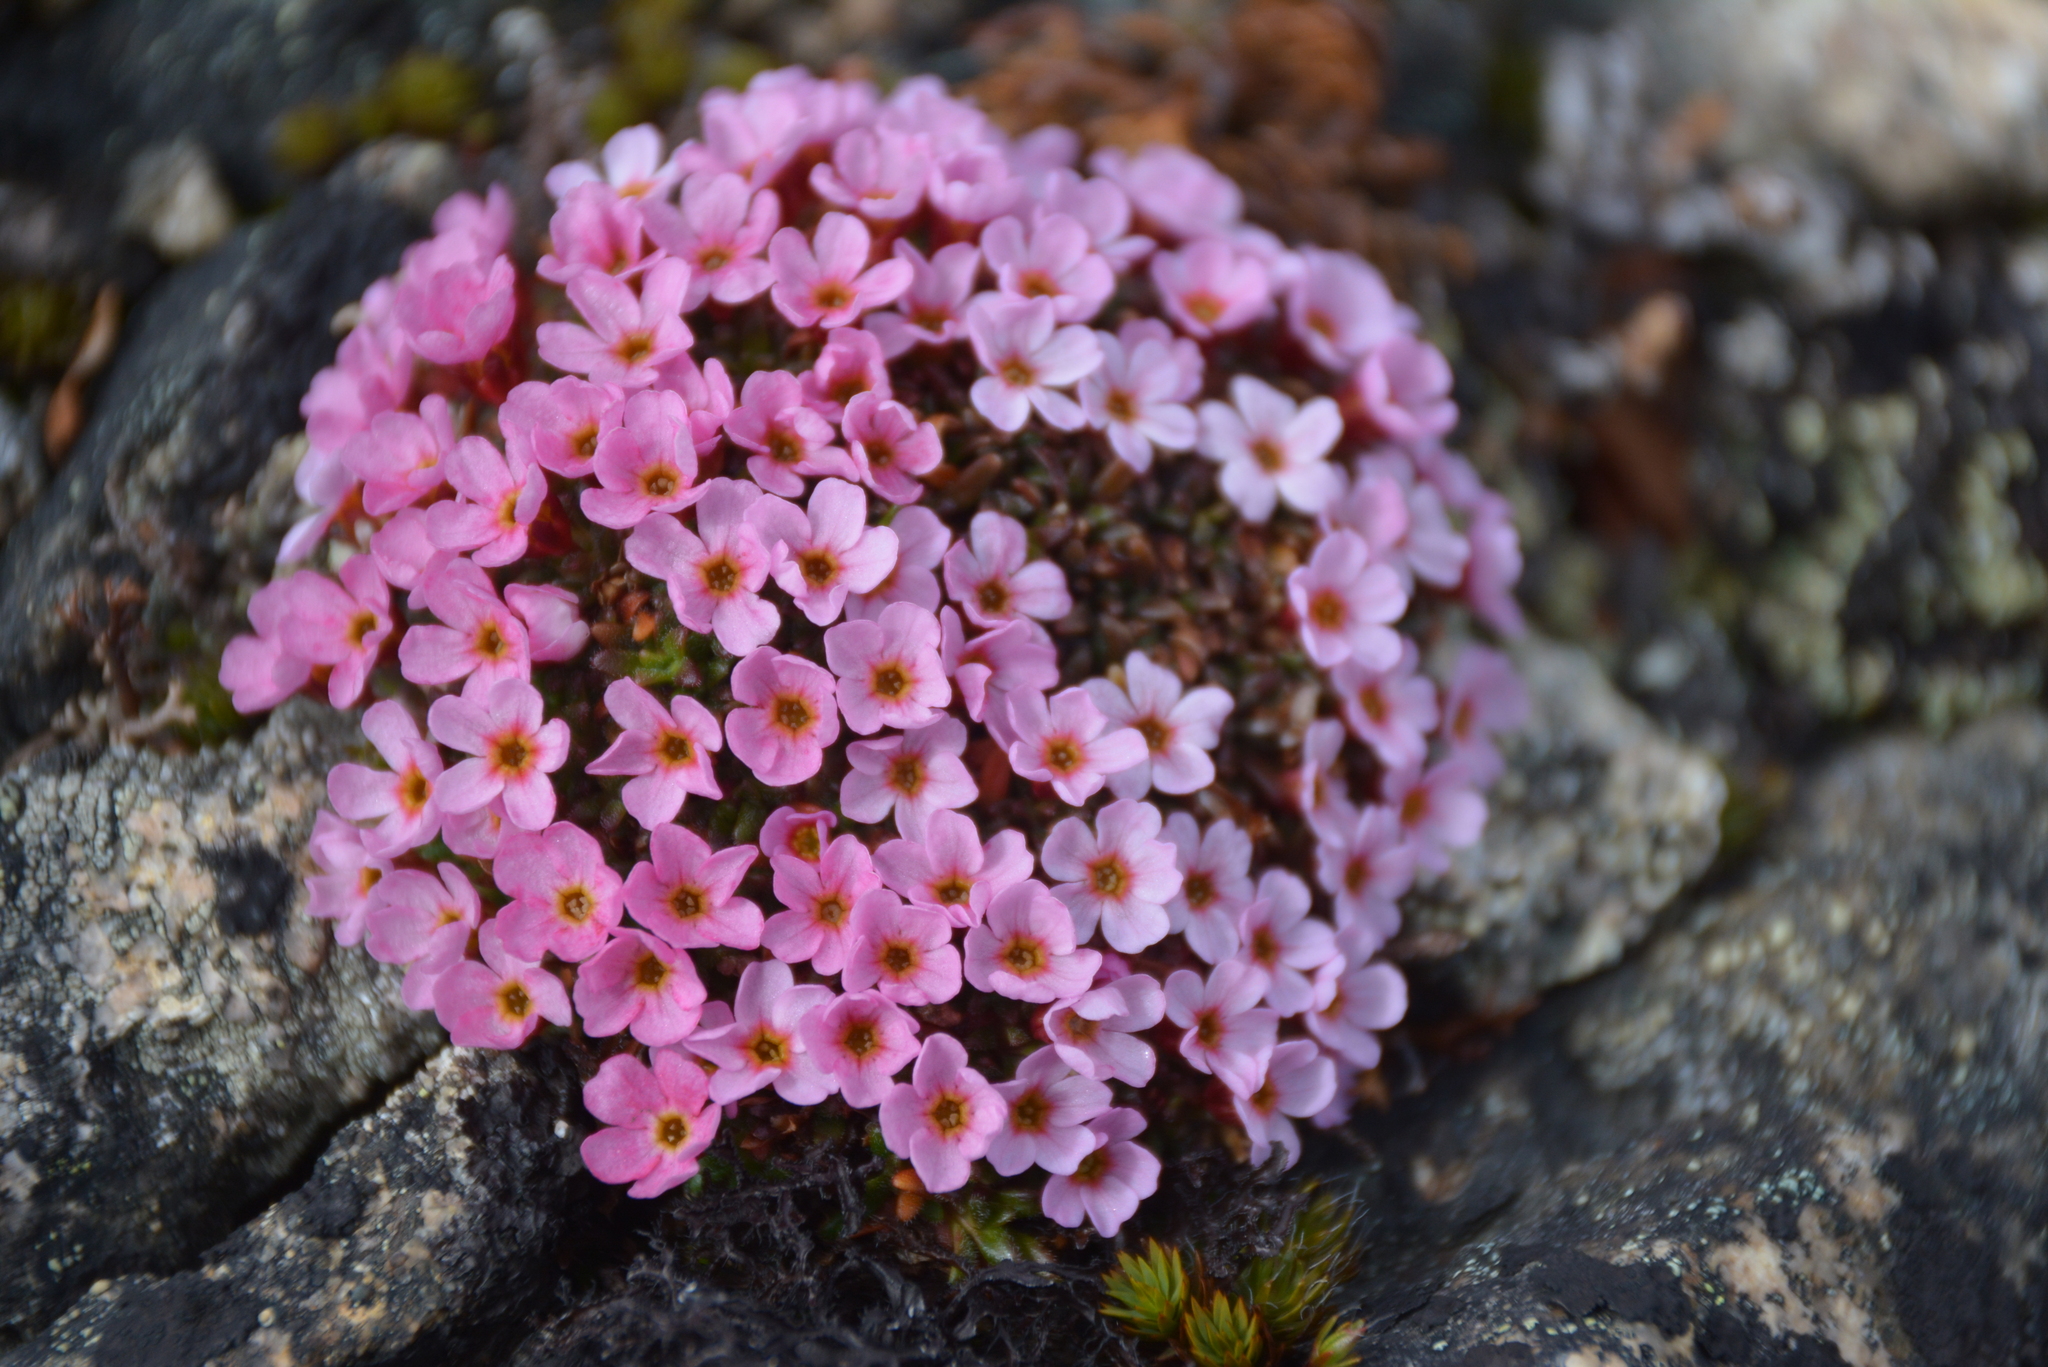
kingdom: Plantae
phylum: Tracheophyta
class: Magnoliopsida
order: Ericales
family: Primulaceae
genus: Androsace
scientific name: Androsace ochotensis
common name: Alaska dwarf-primrose
